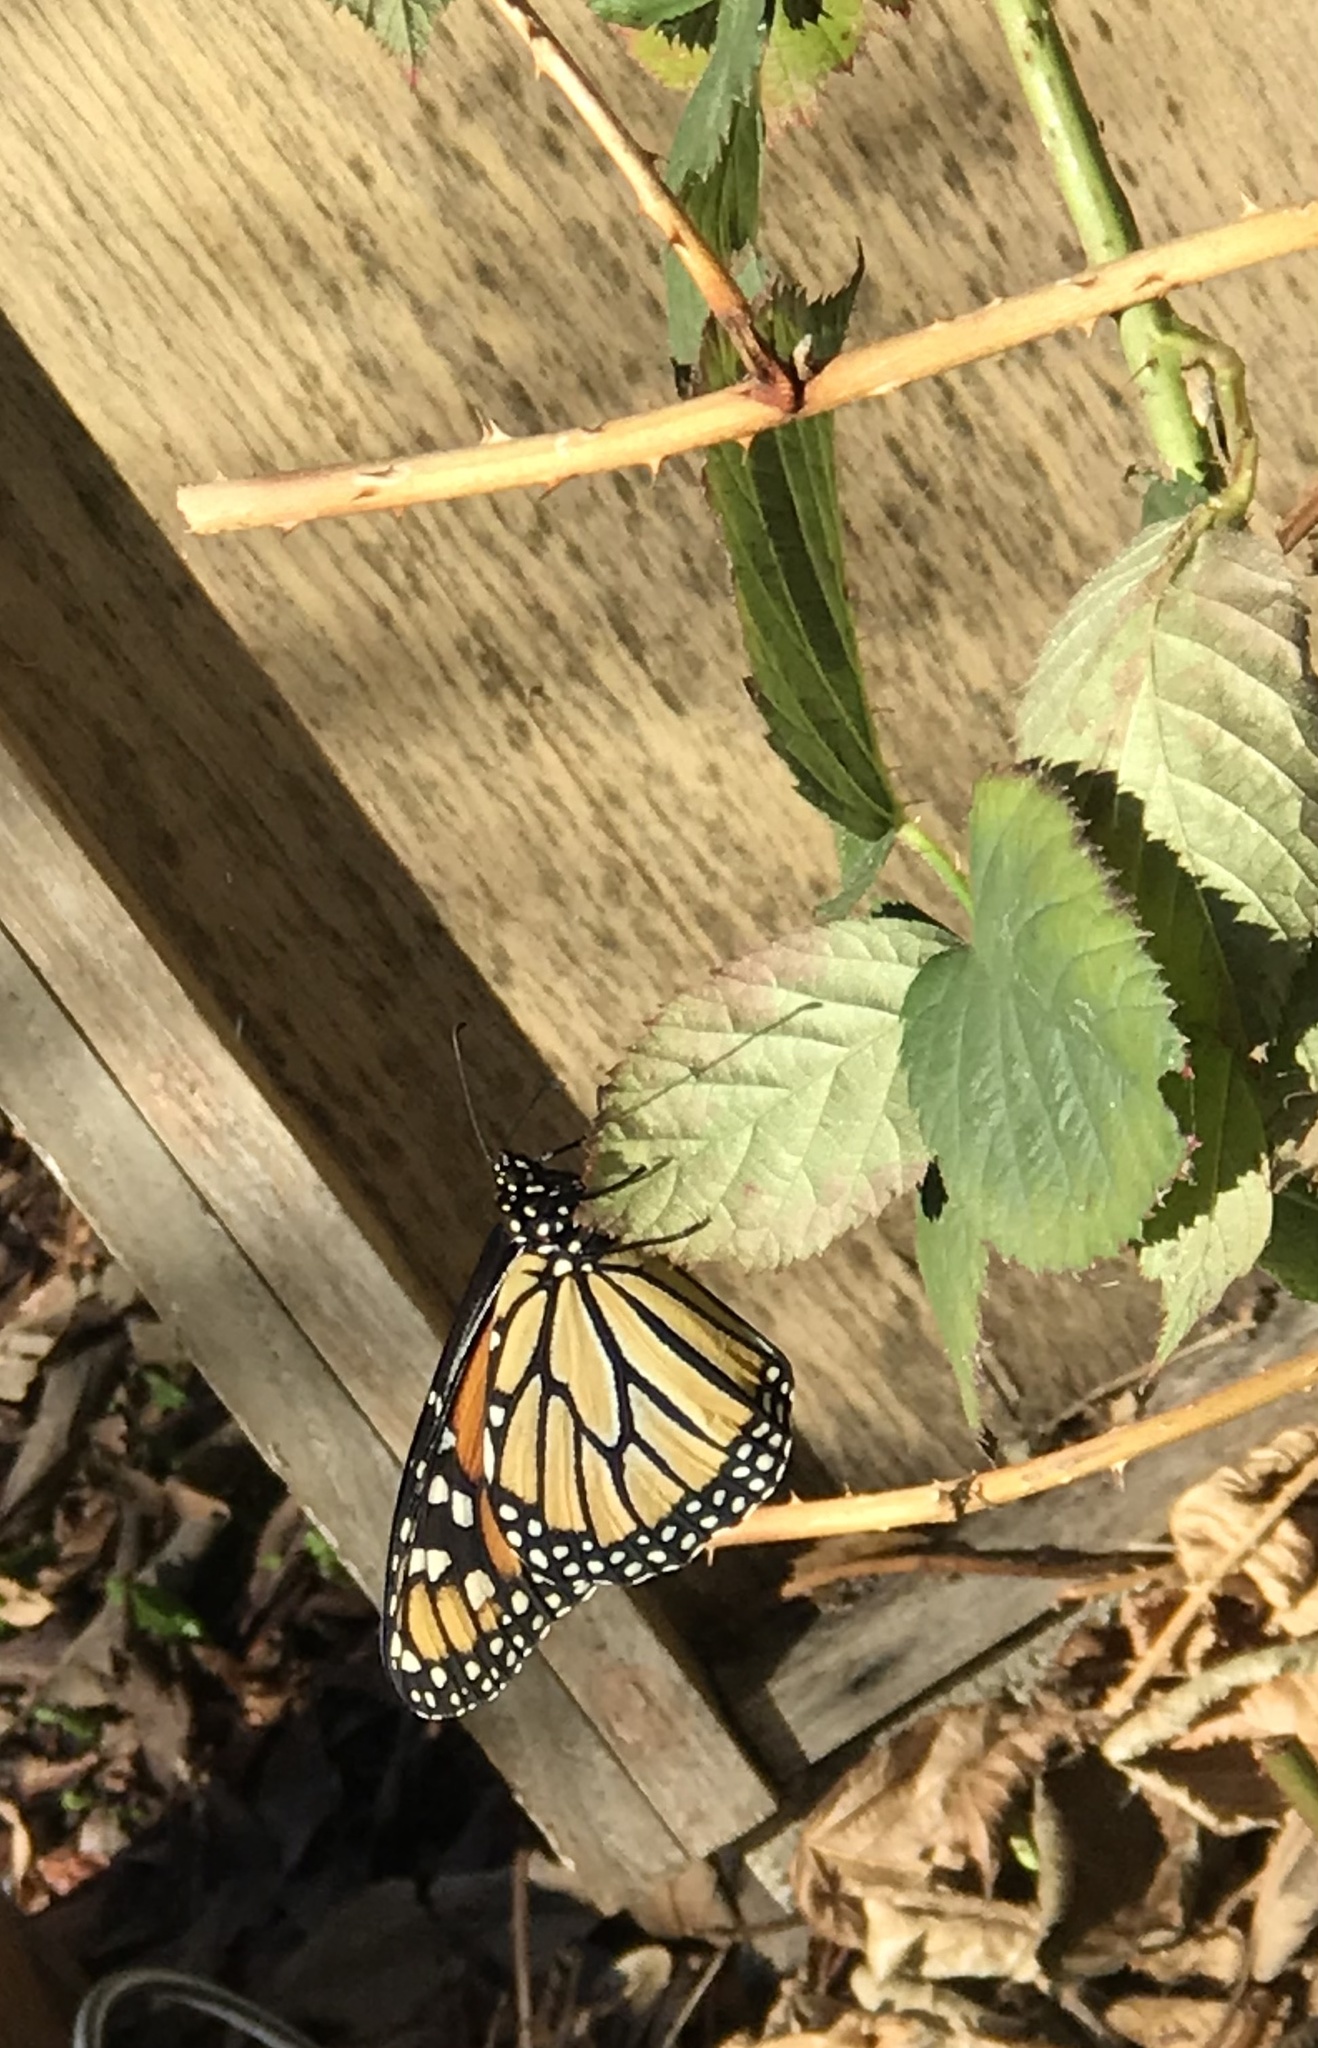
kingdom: Animalia
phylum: Arthropoda
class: Insecta
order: Lepidoptera
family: Nymphalidae
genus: Danaus
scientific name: Danaus plexippus
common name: Monarch
